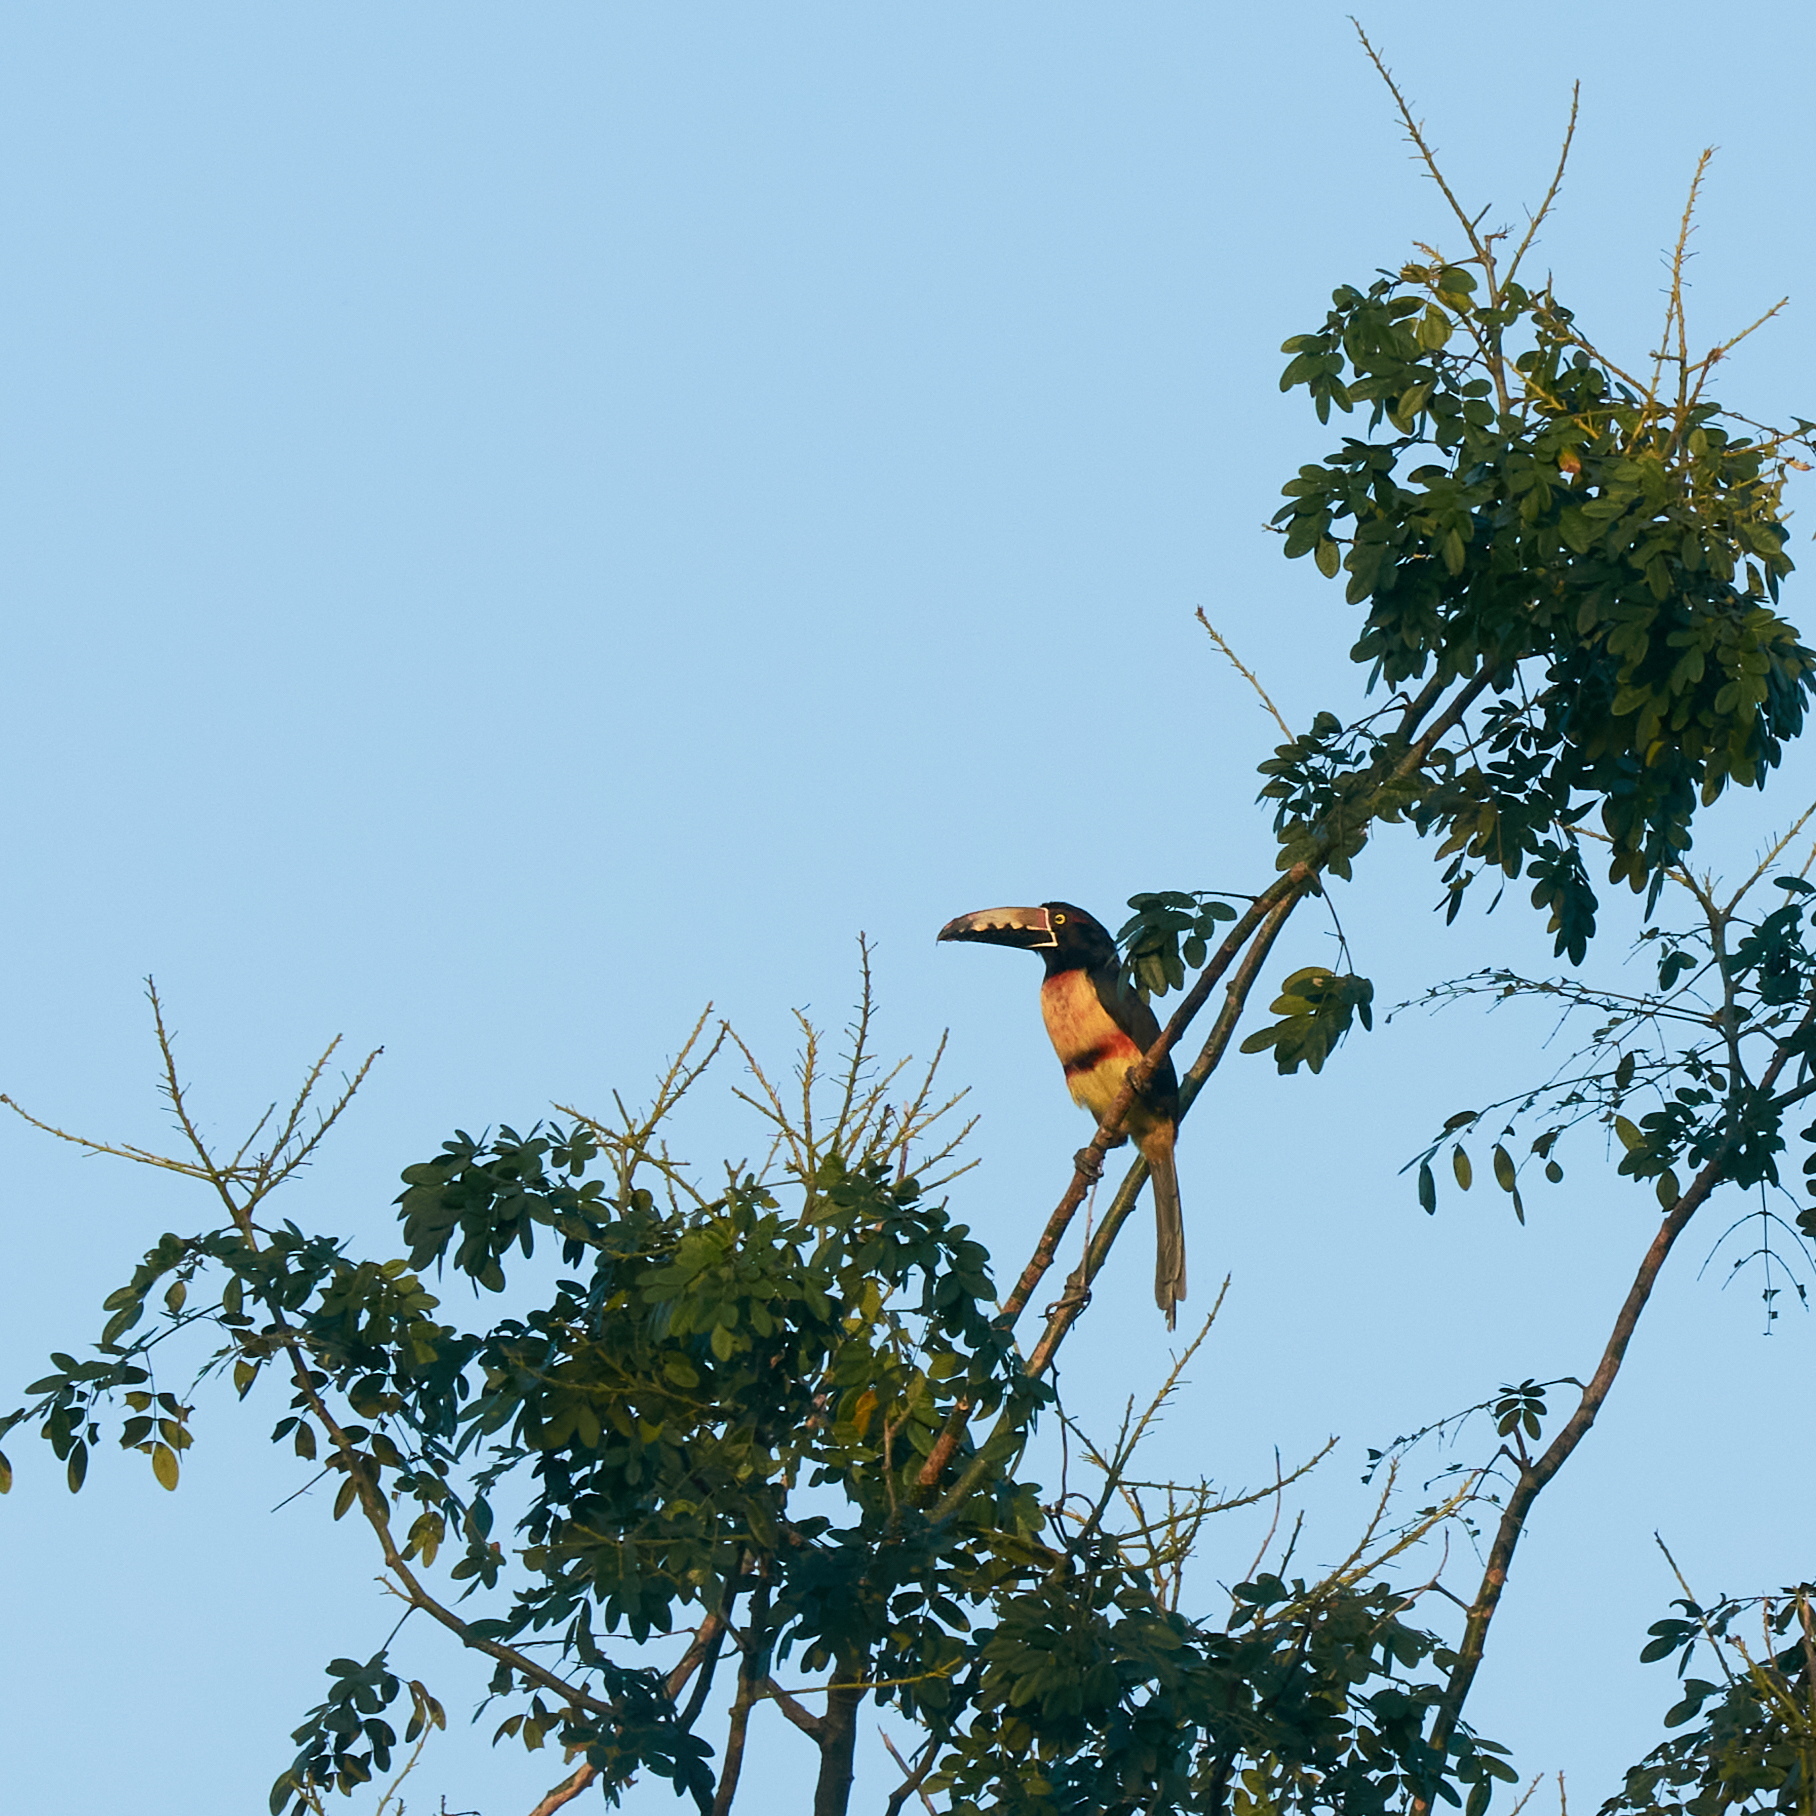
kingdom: Animalia
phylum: Chordata
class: Aves
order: Piciformes
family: Ramphastidae
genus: Pteroglossus
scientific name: Pteroglossus torquatus
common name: Collared aracari
